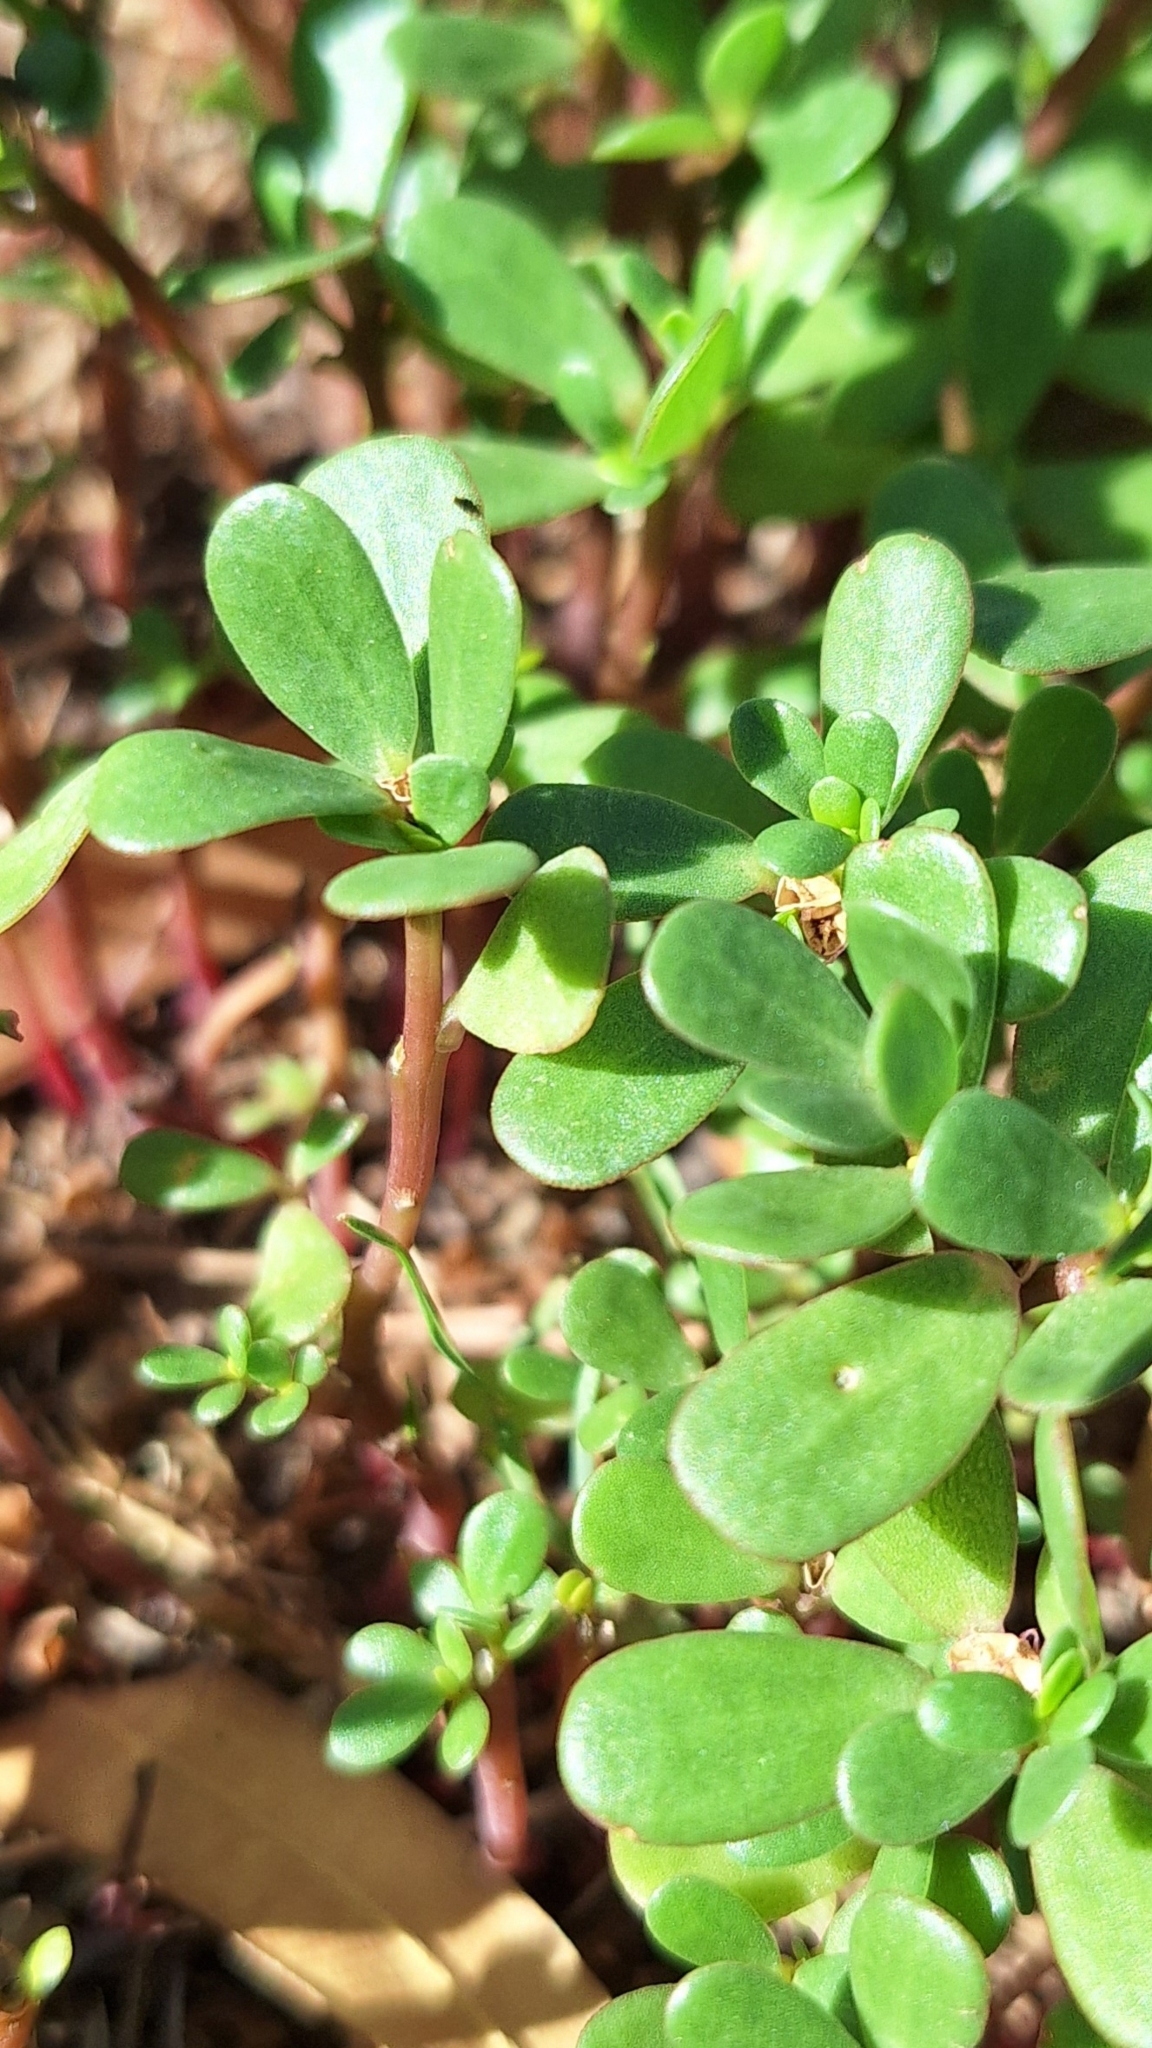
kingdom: Plantae
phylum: Tracheophyta
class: Magnoliopsida
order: Caryophyllales
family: Portulacaceae
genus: Portulaca
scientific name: Portulaca oleracea
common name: Common purslane
